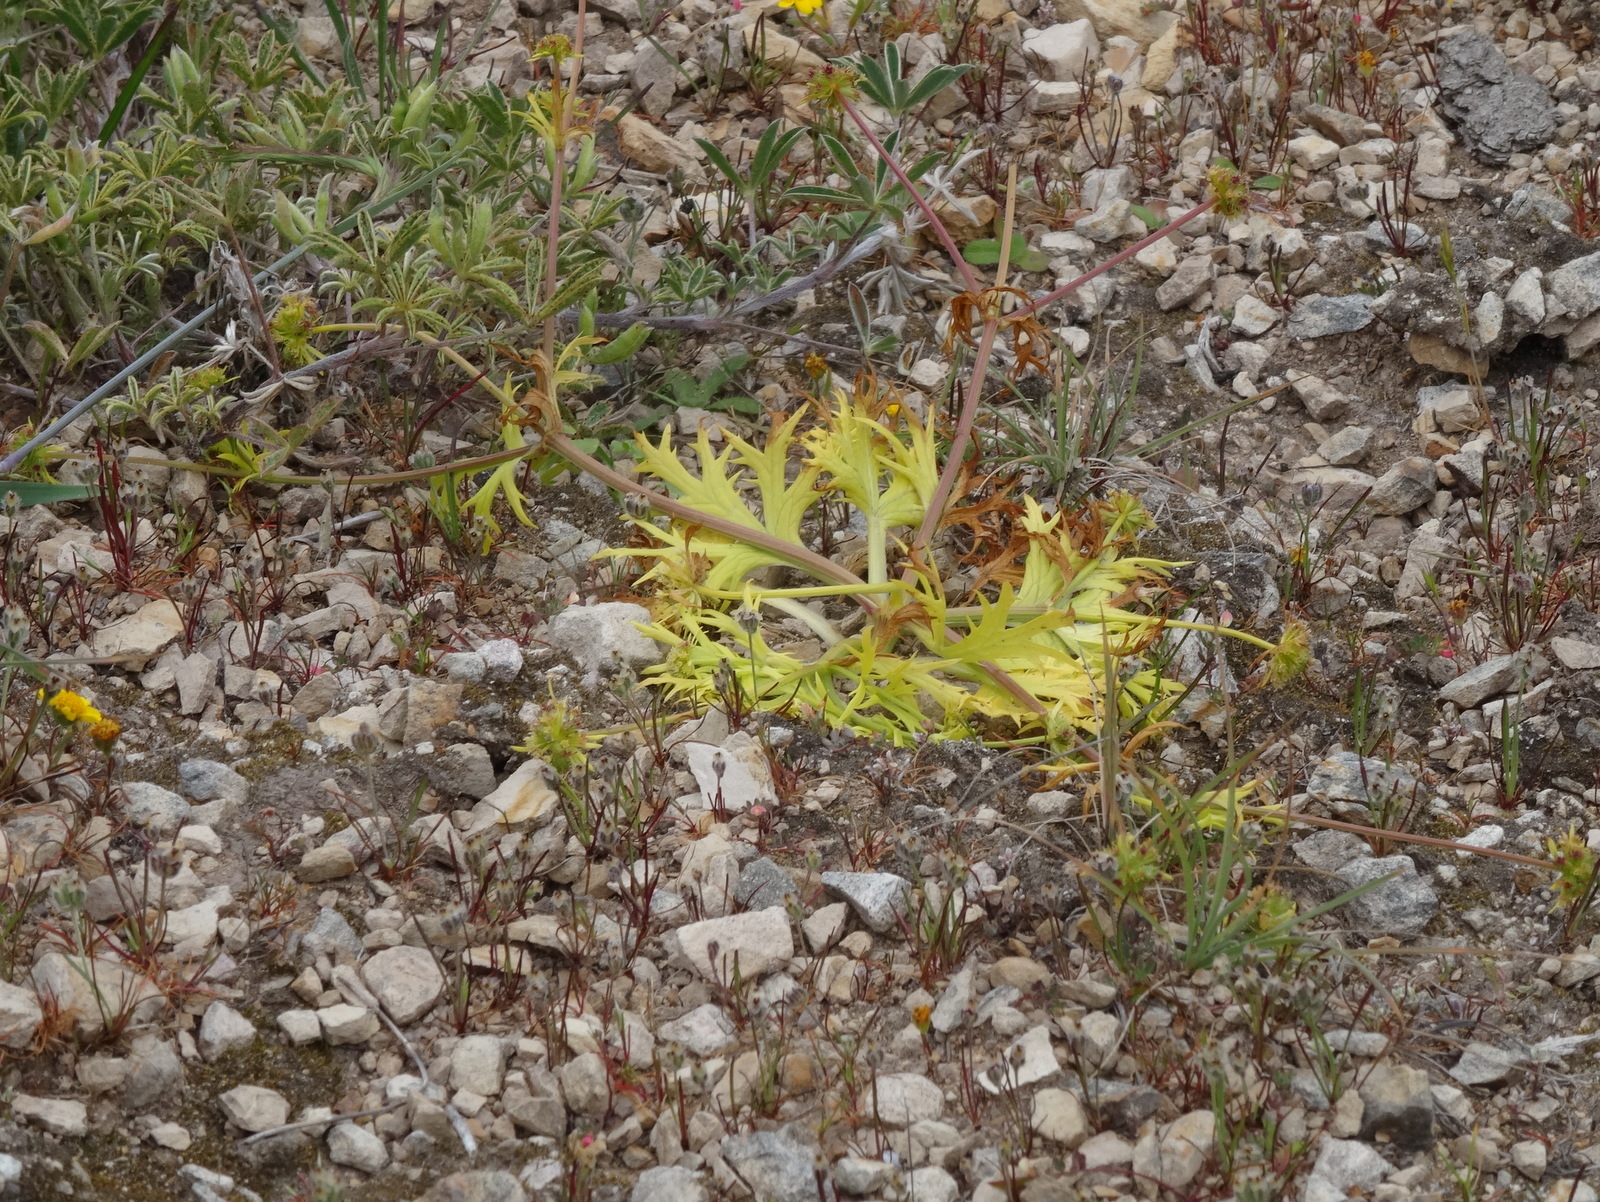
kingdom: Plantae
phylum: Tracheophyta
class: Magnoliopsida
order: Apiales
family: Apiaceae
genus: Sanicula
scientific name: Sanicula arctopoides
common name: Footsteps-of-spring
